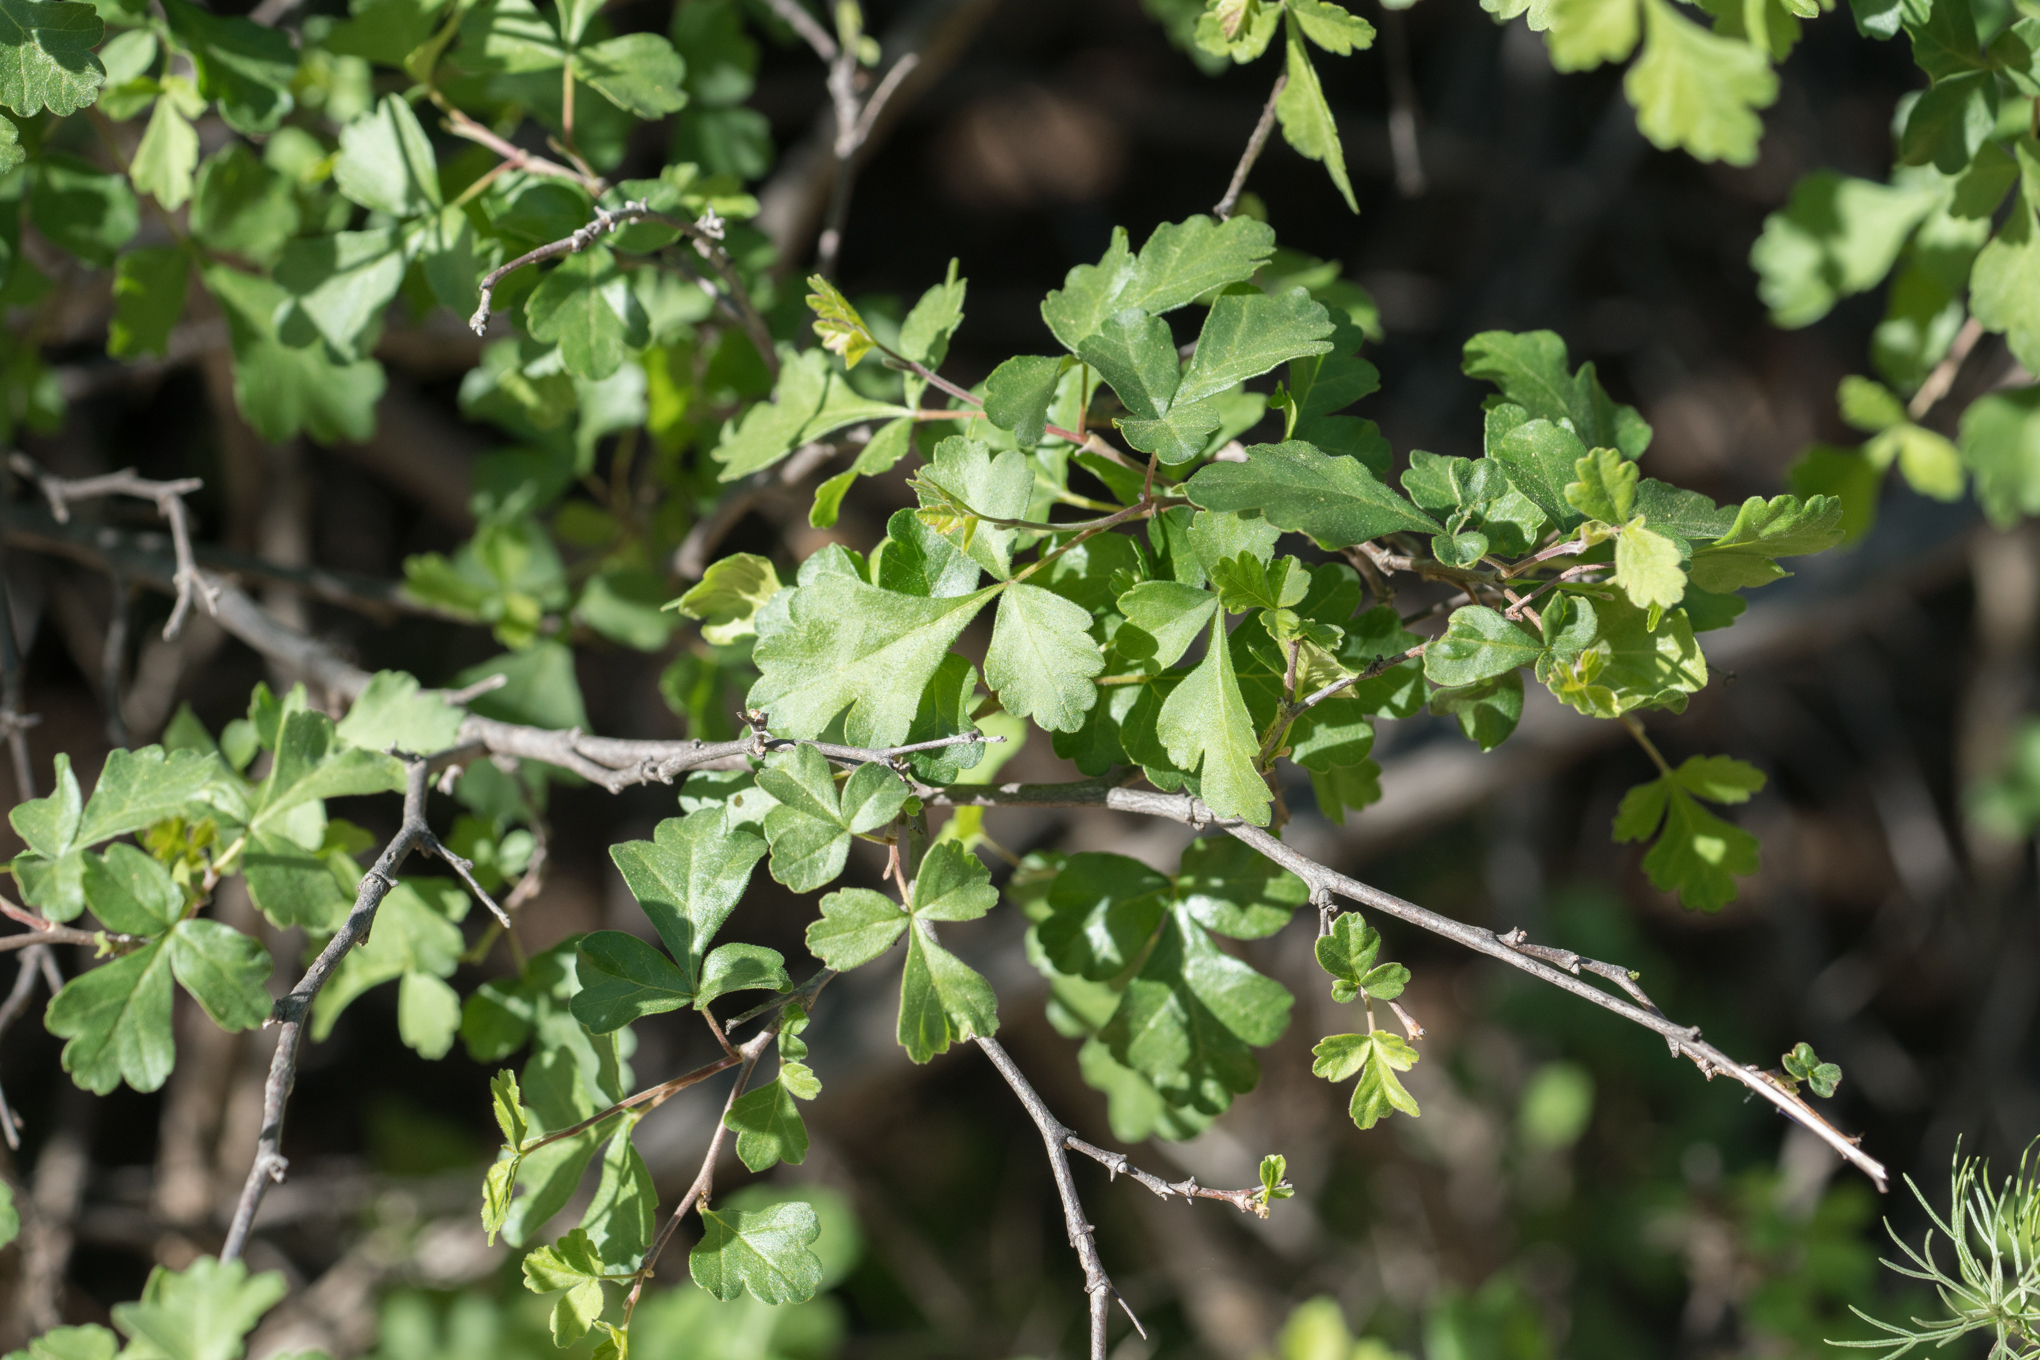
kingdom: Plantae
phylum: Tracheophyta
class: Magnoliopsida
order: Sapindales
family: Anacardiaceae
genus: Rhus
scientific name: Rhus aromatica
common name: Aromatic sumac
